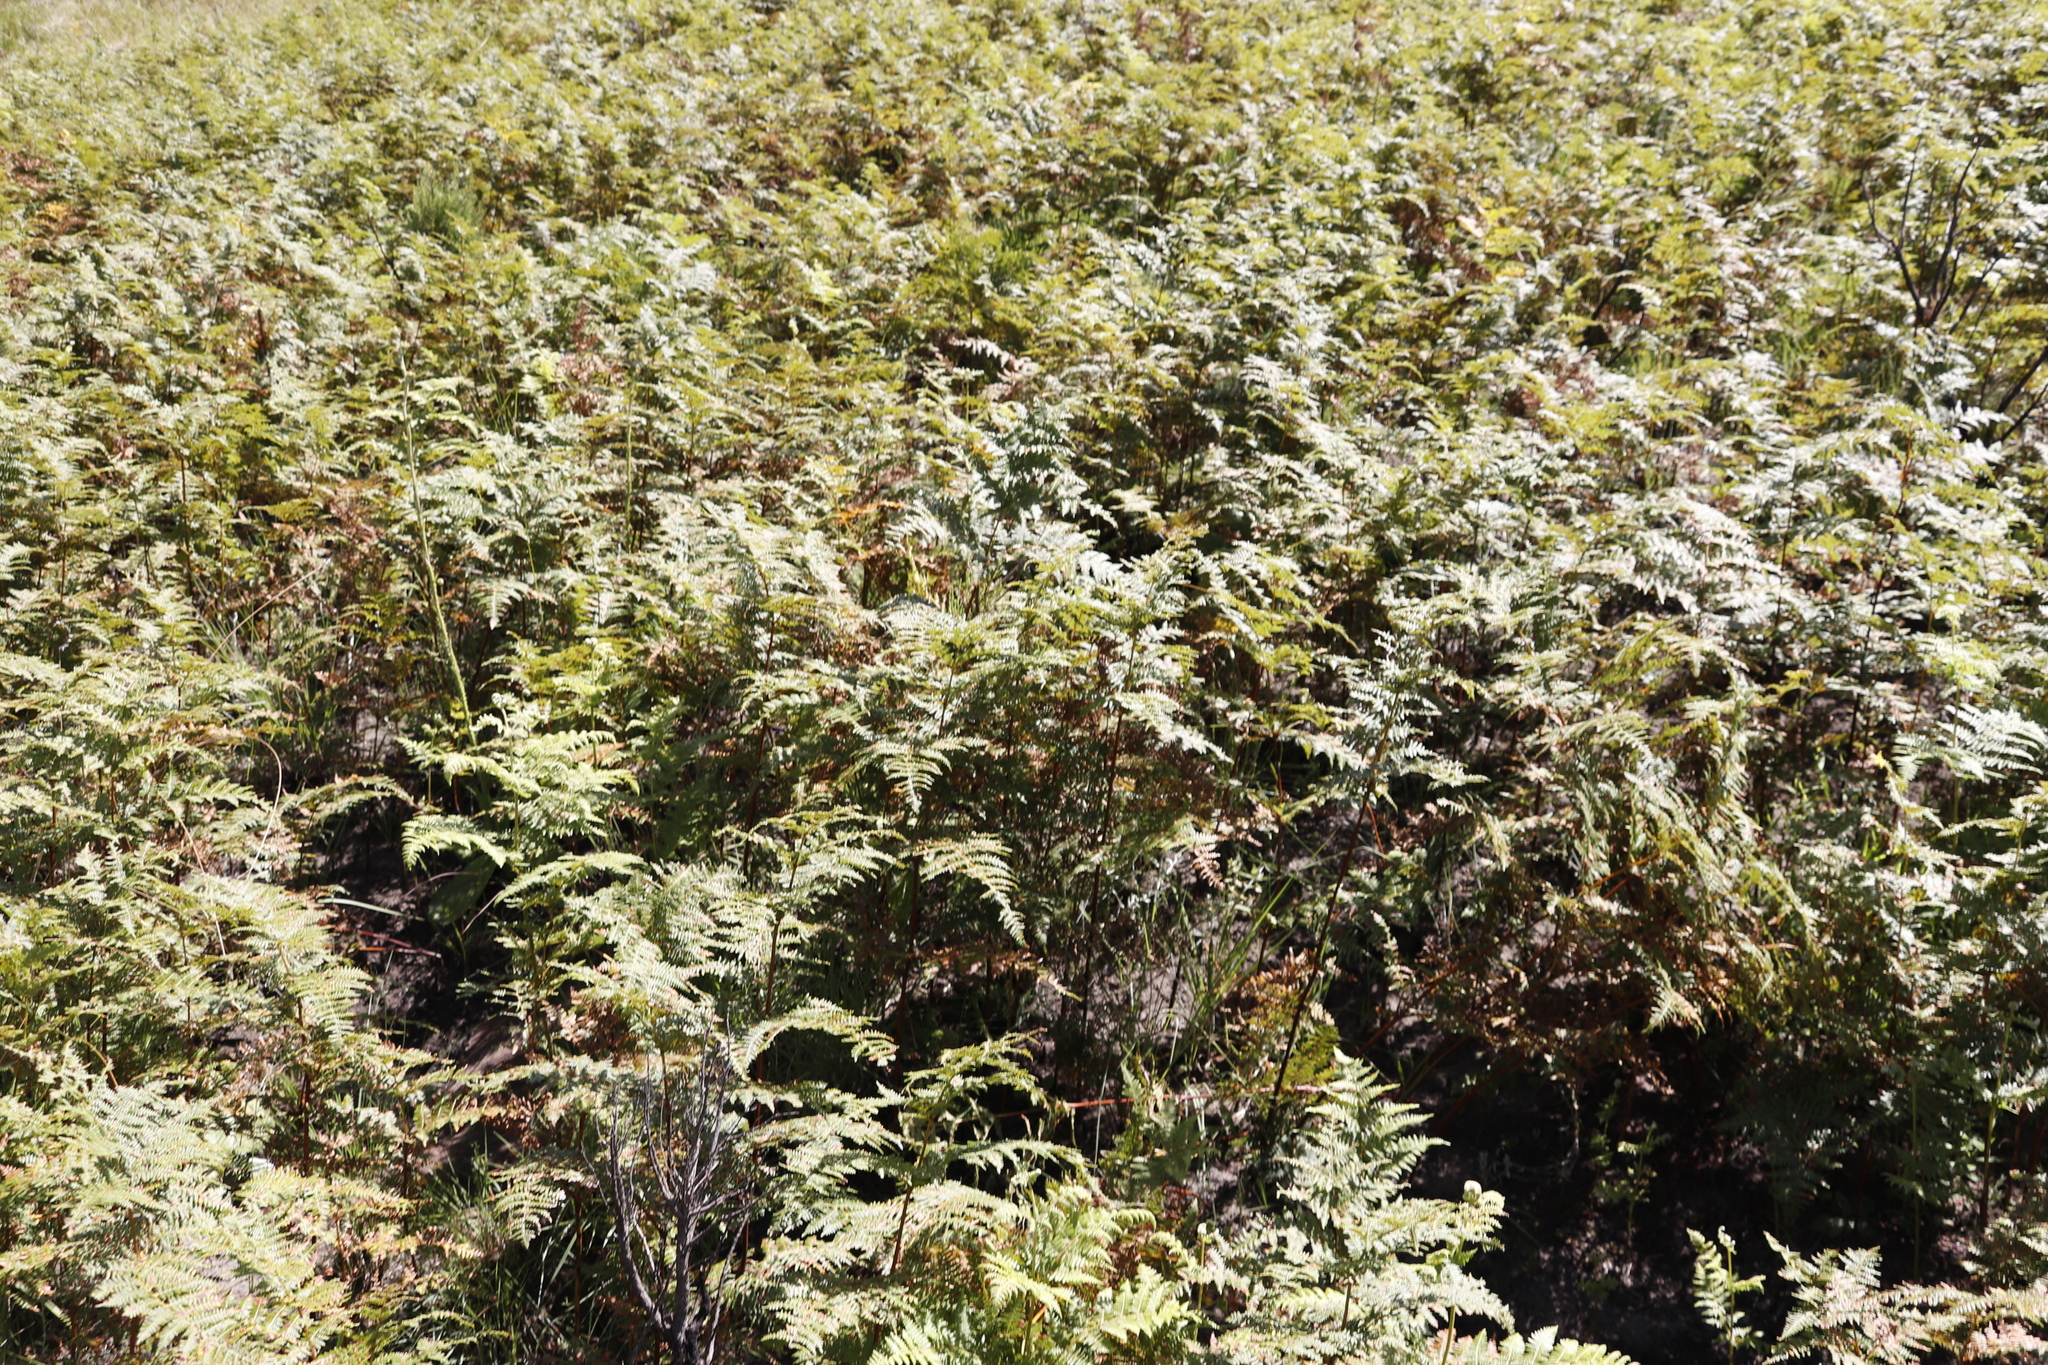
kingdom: Plantae
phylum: Tracheophyta
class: Polypodiopsida
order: Polypodiales
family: Dennstaedtiaceae
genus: Pteridium
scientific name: Pteridium aquilinum
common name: Bracken
